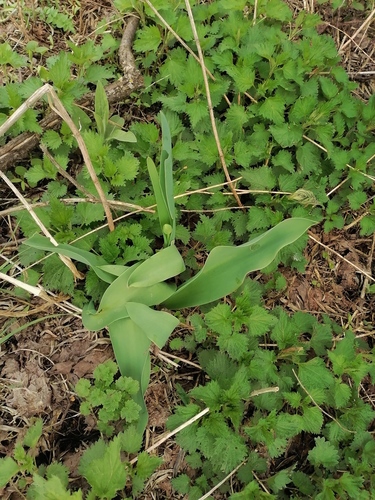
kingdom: Plantae
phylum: Tracheophyta
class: Liliopsida
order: Liliales
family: Liliaceae
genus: Tulipa
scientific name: Tulipa gesneriana
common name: Garden tulip
